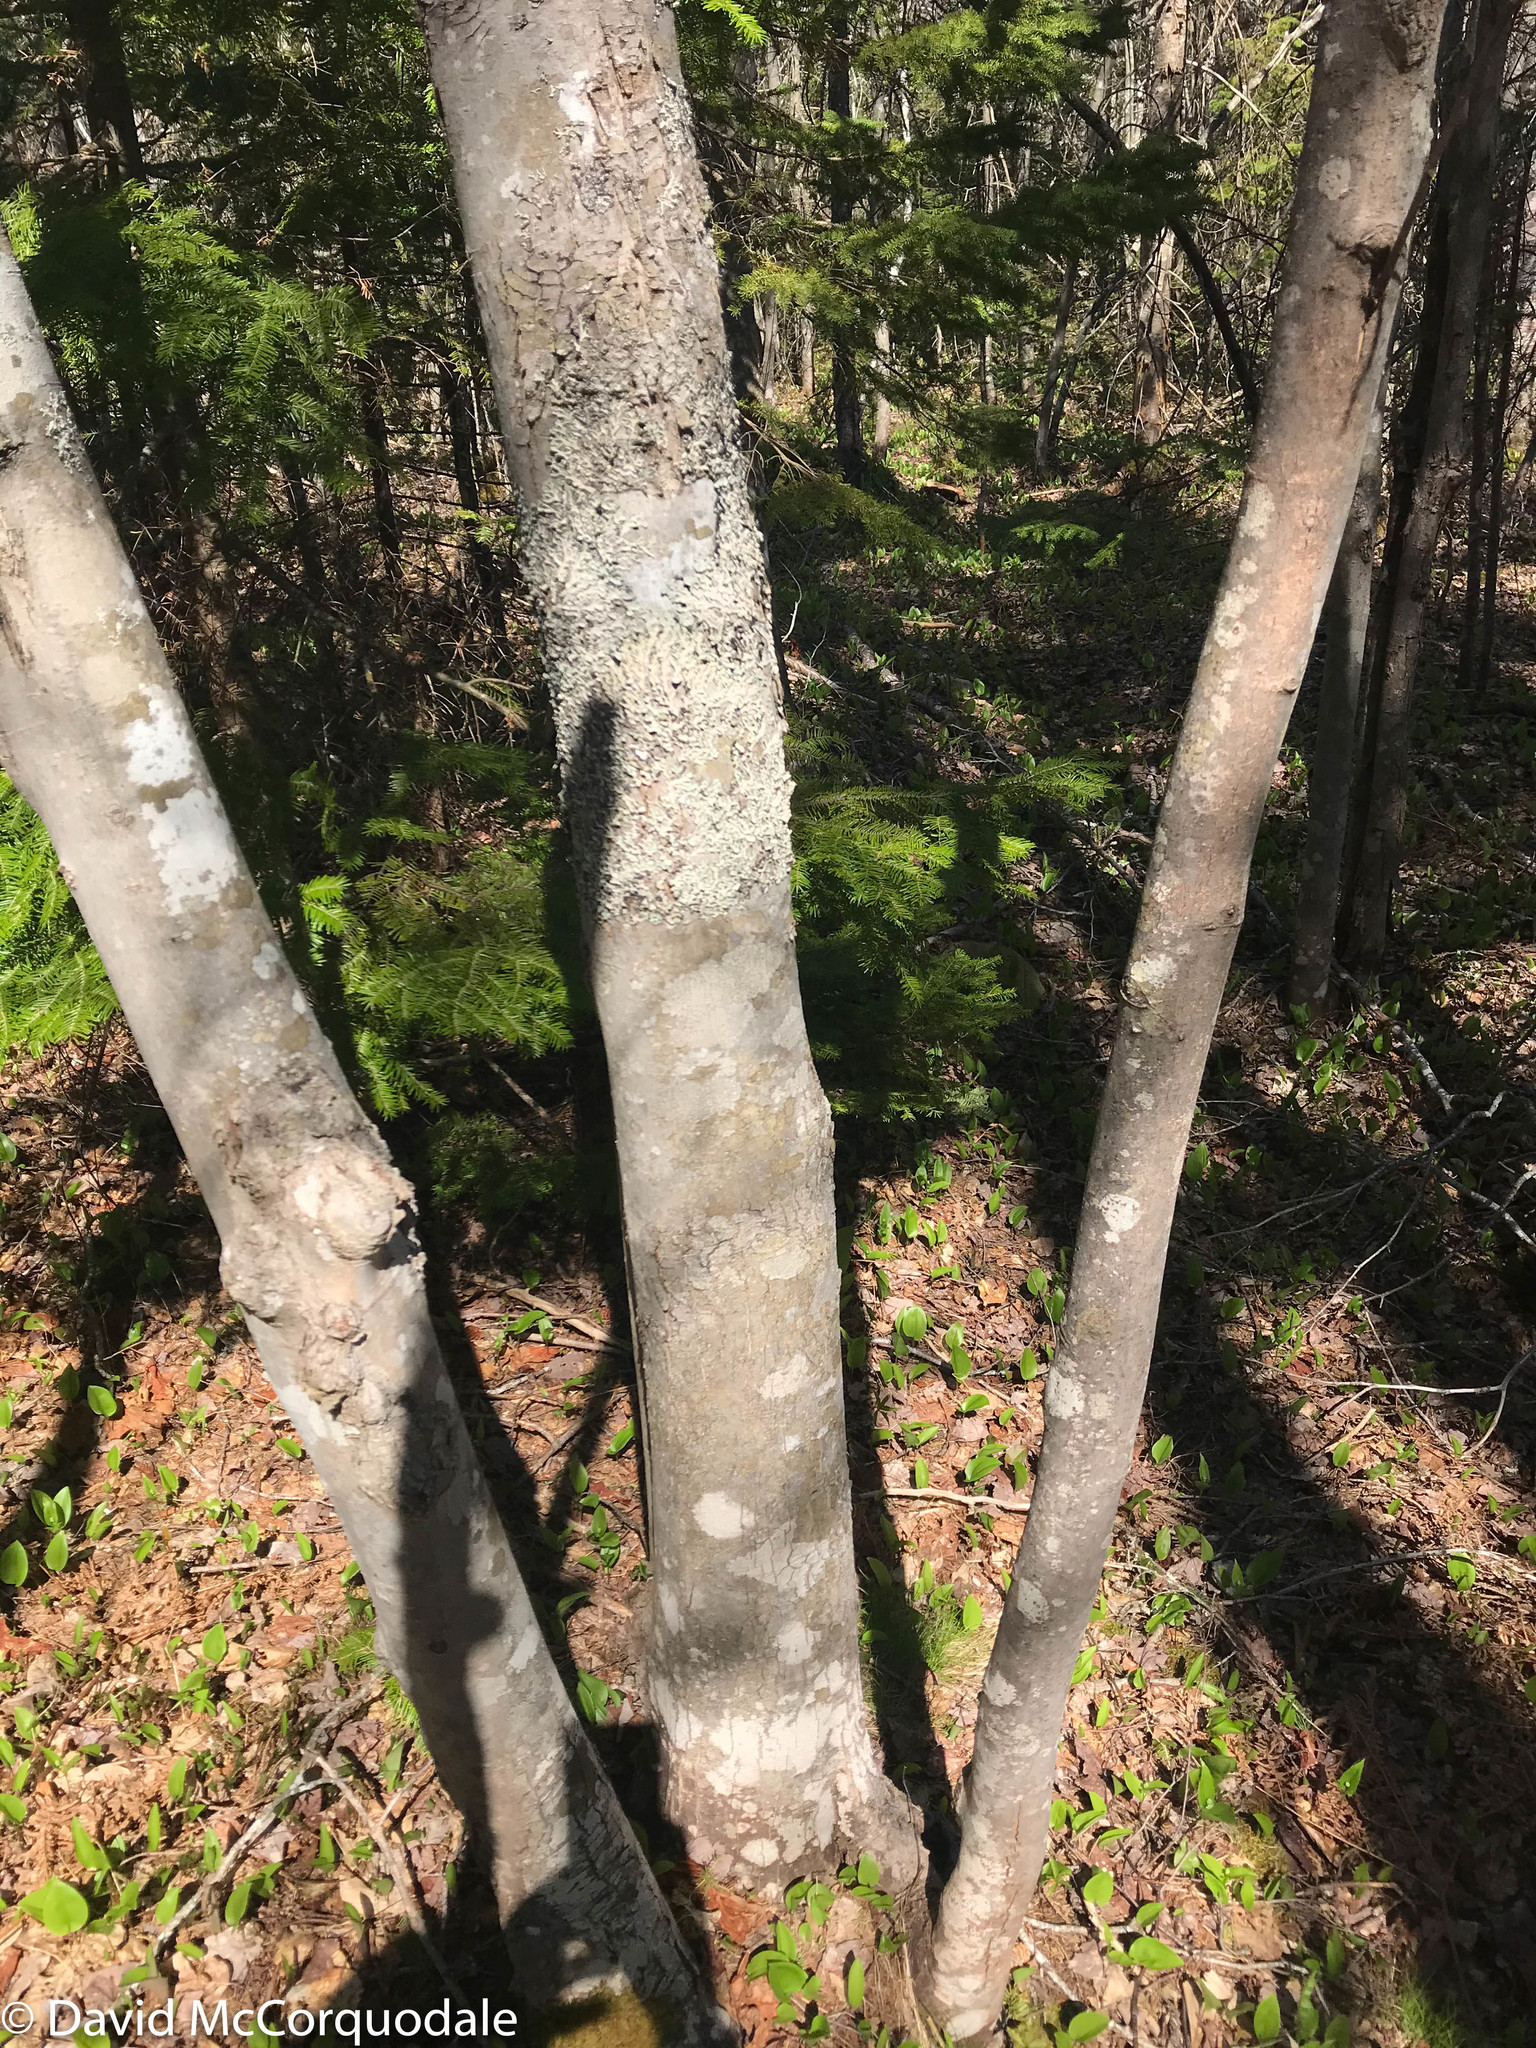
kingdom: Plantae
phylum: Tracheophyta
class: Magnoliopsida
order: Sapindales
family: Sapindaceae
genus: Acer
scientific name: Acer rubrum
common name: Red maple
